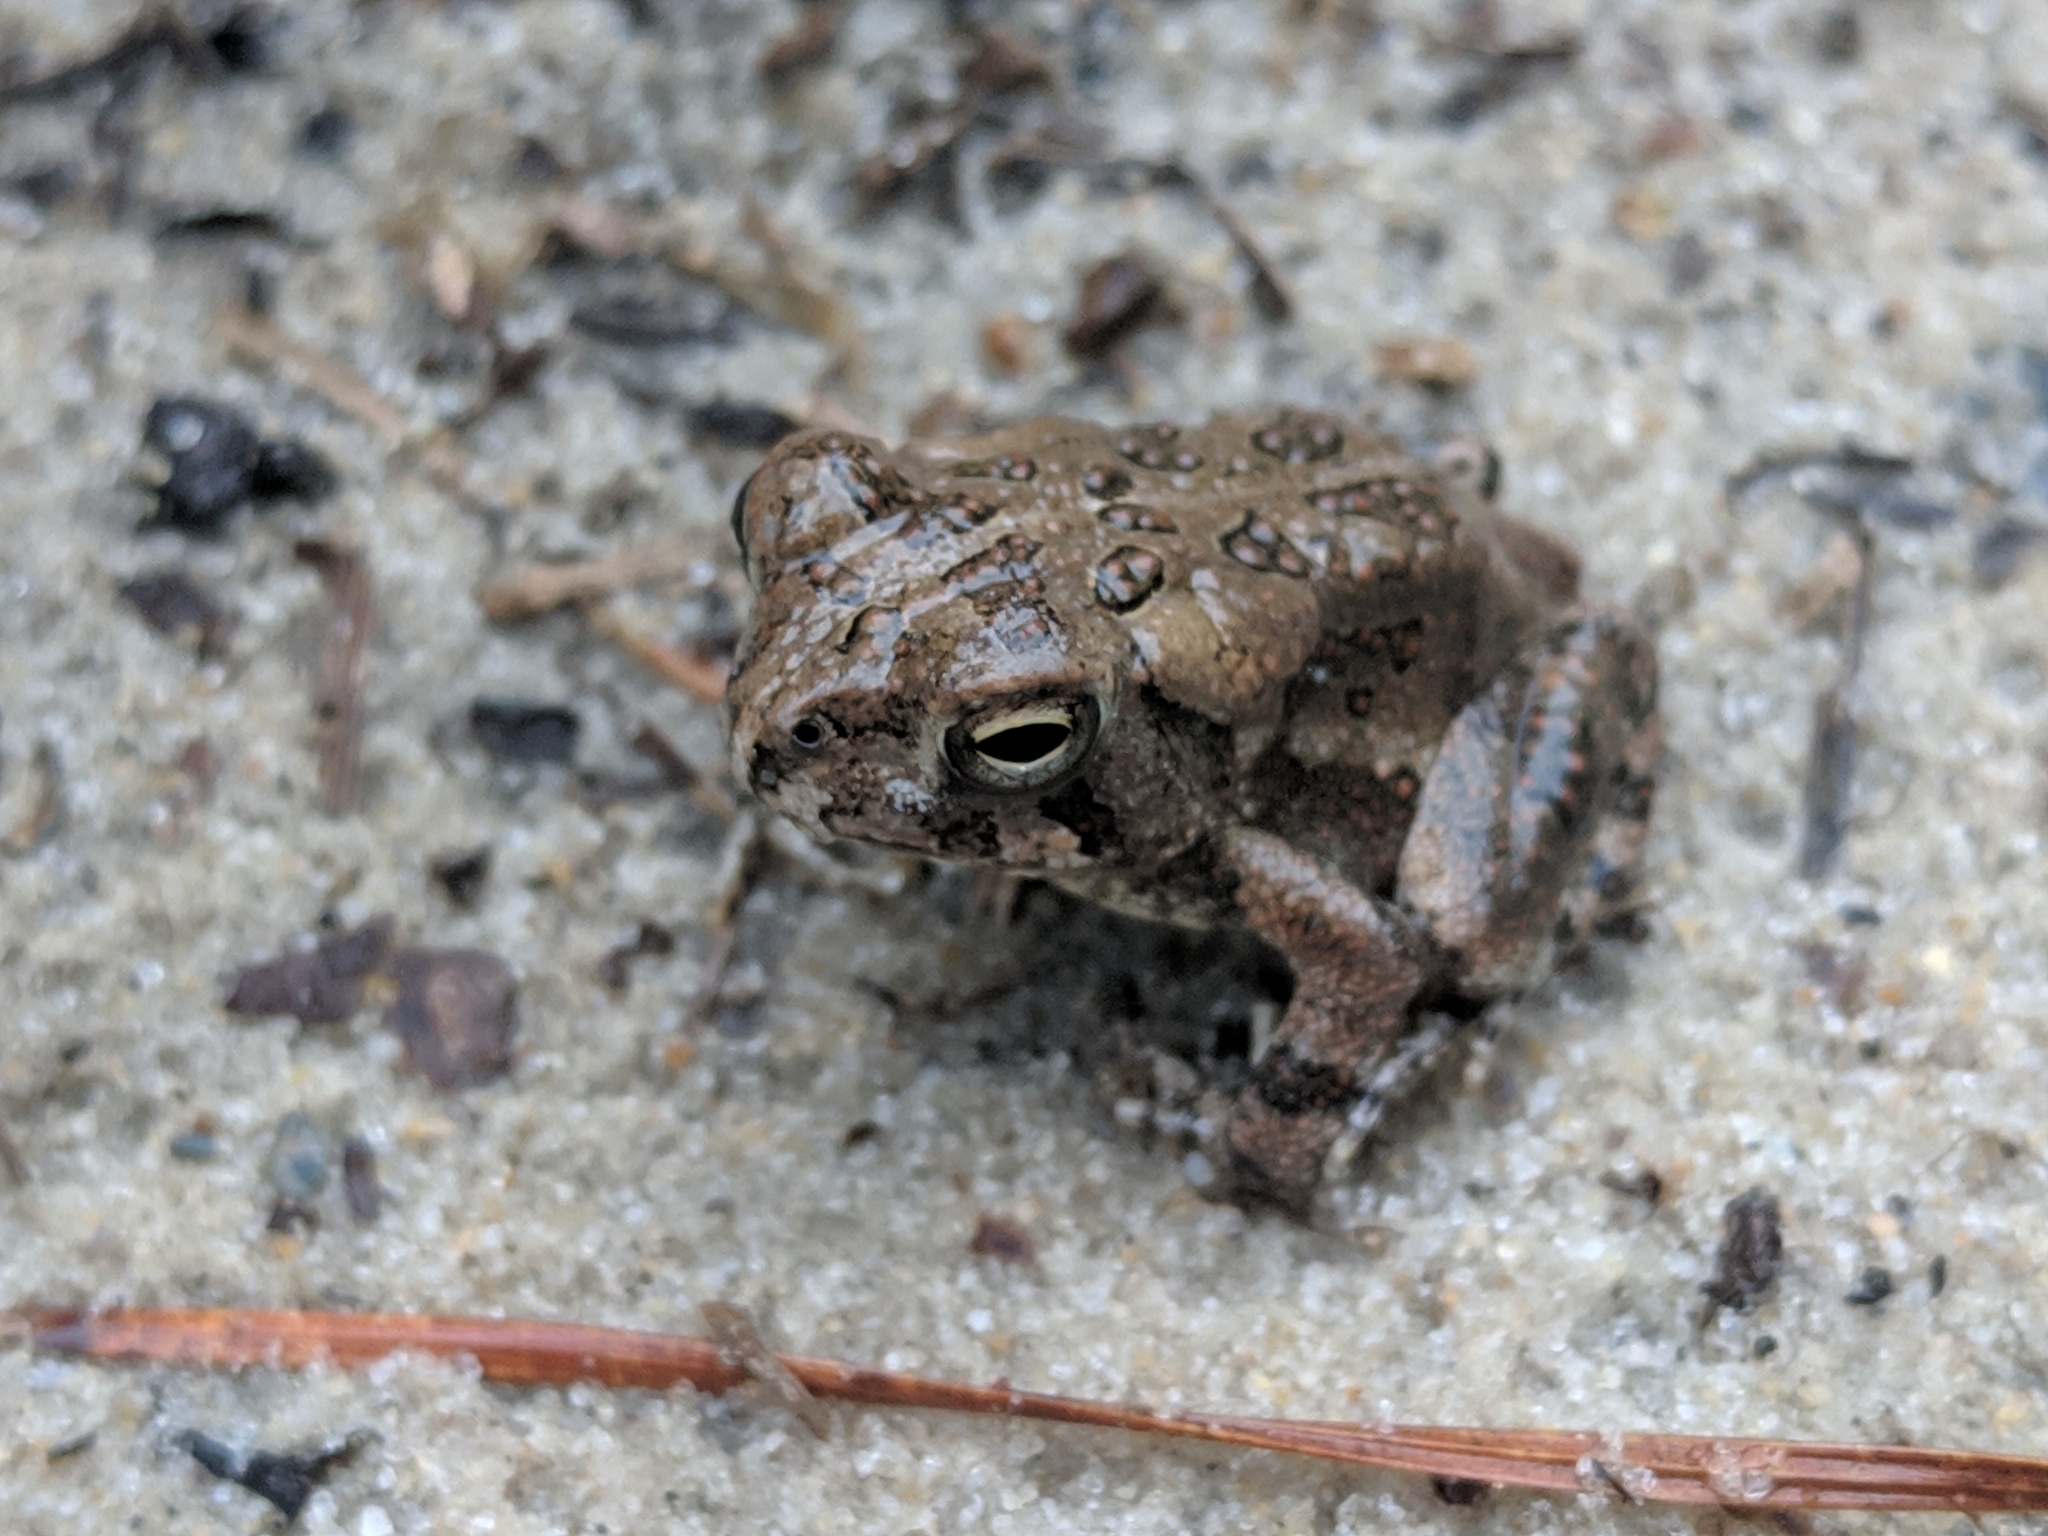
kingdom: Animalia
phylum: Chordata
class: Amphibia
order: Anura
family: Bufonidae
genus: Anaxyrus
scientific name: Anaxyrus fowleri
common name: Fowler's toad
